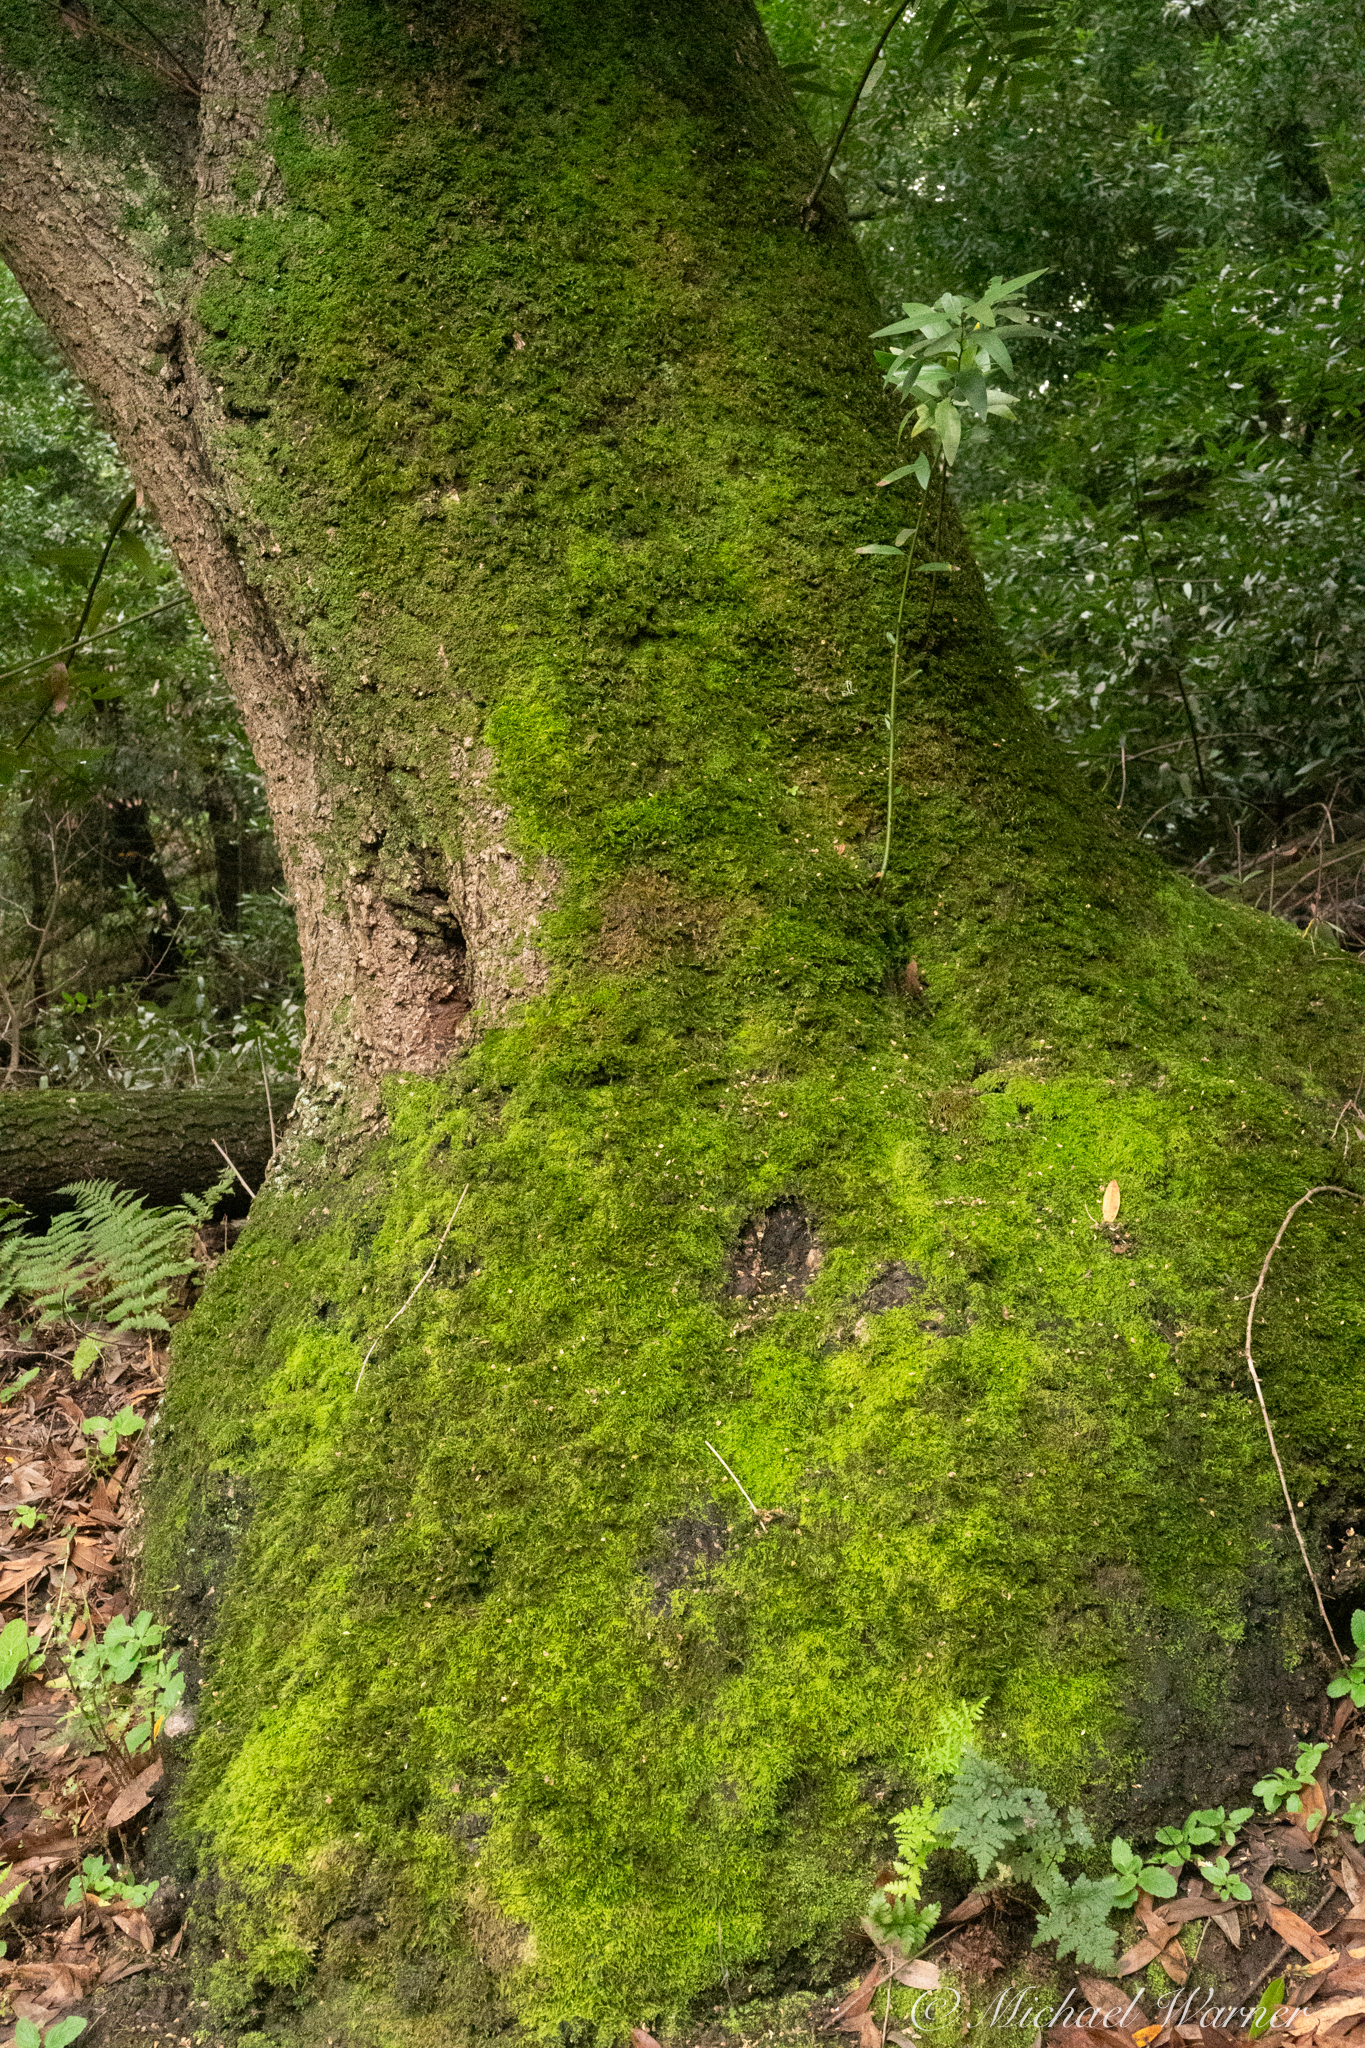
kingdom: Plantae
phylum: Tracheophyta
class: Magnoliopsida
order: Laurales
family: Lauraceae
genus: Umbellularia
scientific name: Umbellularia californica
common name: California bay
